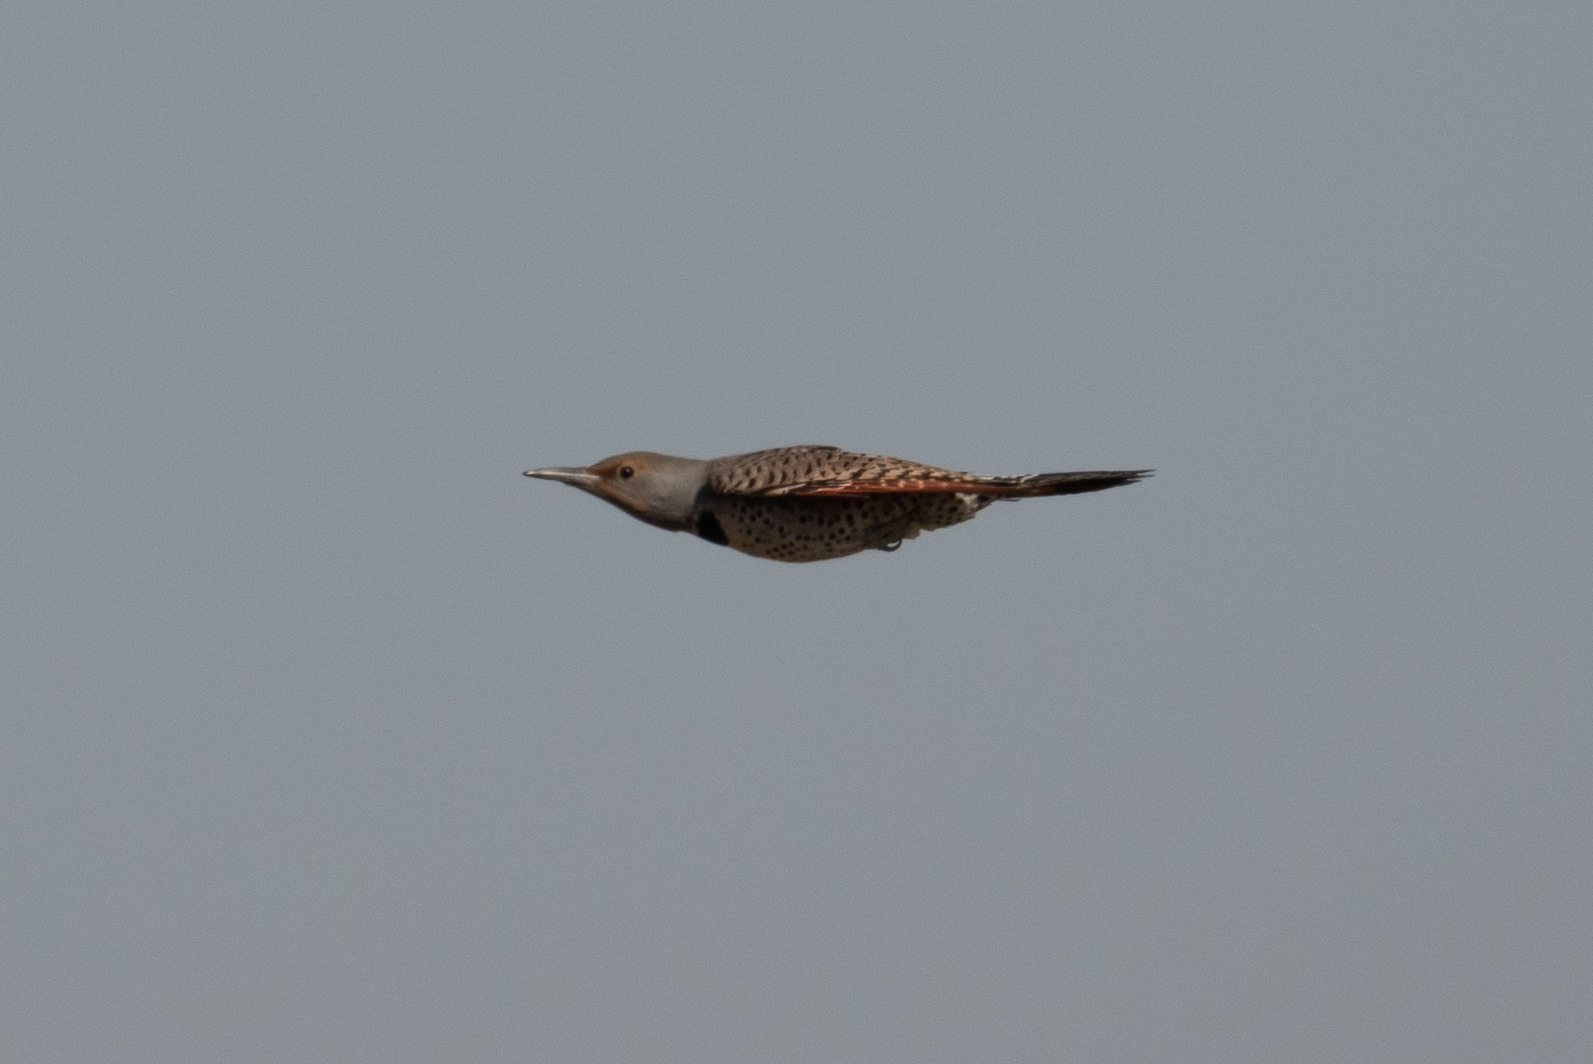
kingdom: Animalia
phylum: Chordata
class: Aves
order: Piciformes
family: Picidae
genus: Colaptes
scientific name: Colaptes auratus
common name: Northern flicker
